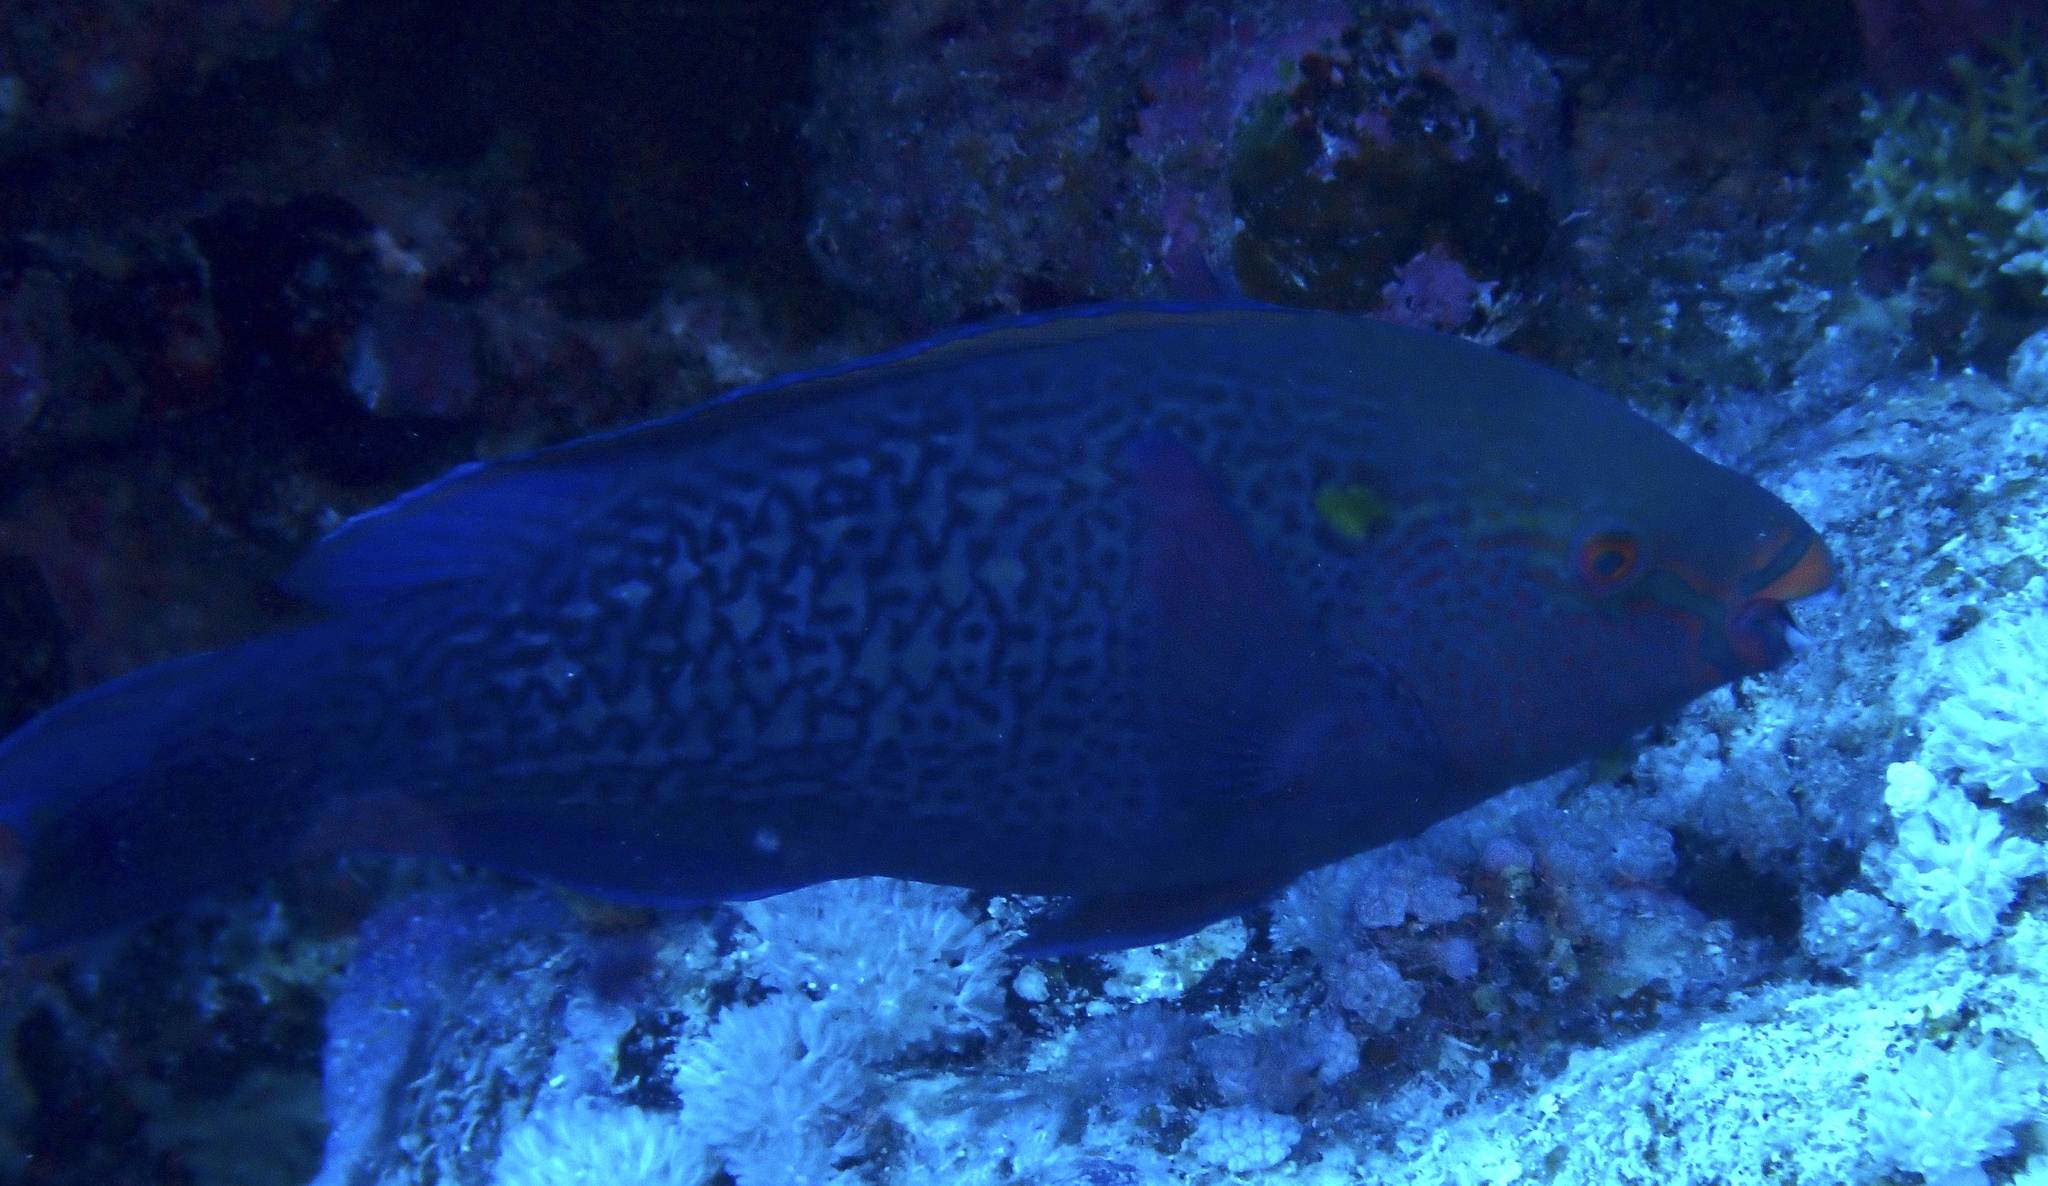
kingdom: Animalia
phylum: Chordata
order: Perciformes
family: Scaridae
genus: Scarus
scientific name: Scarus niger
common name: Dusky parrotfish
